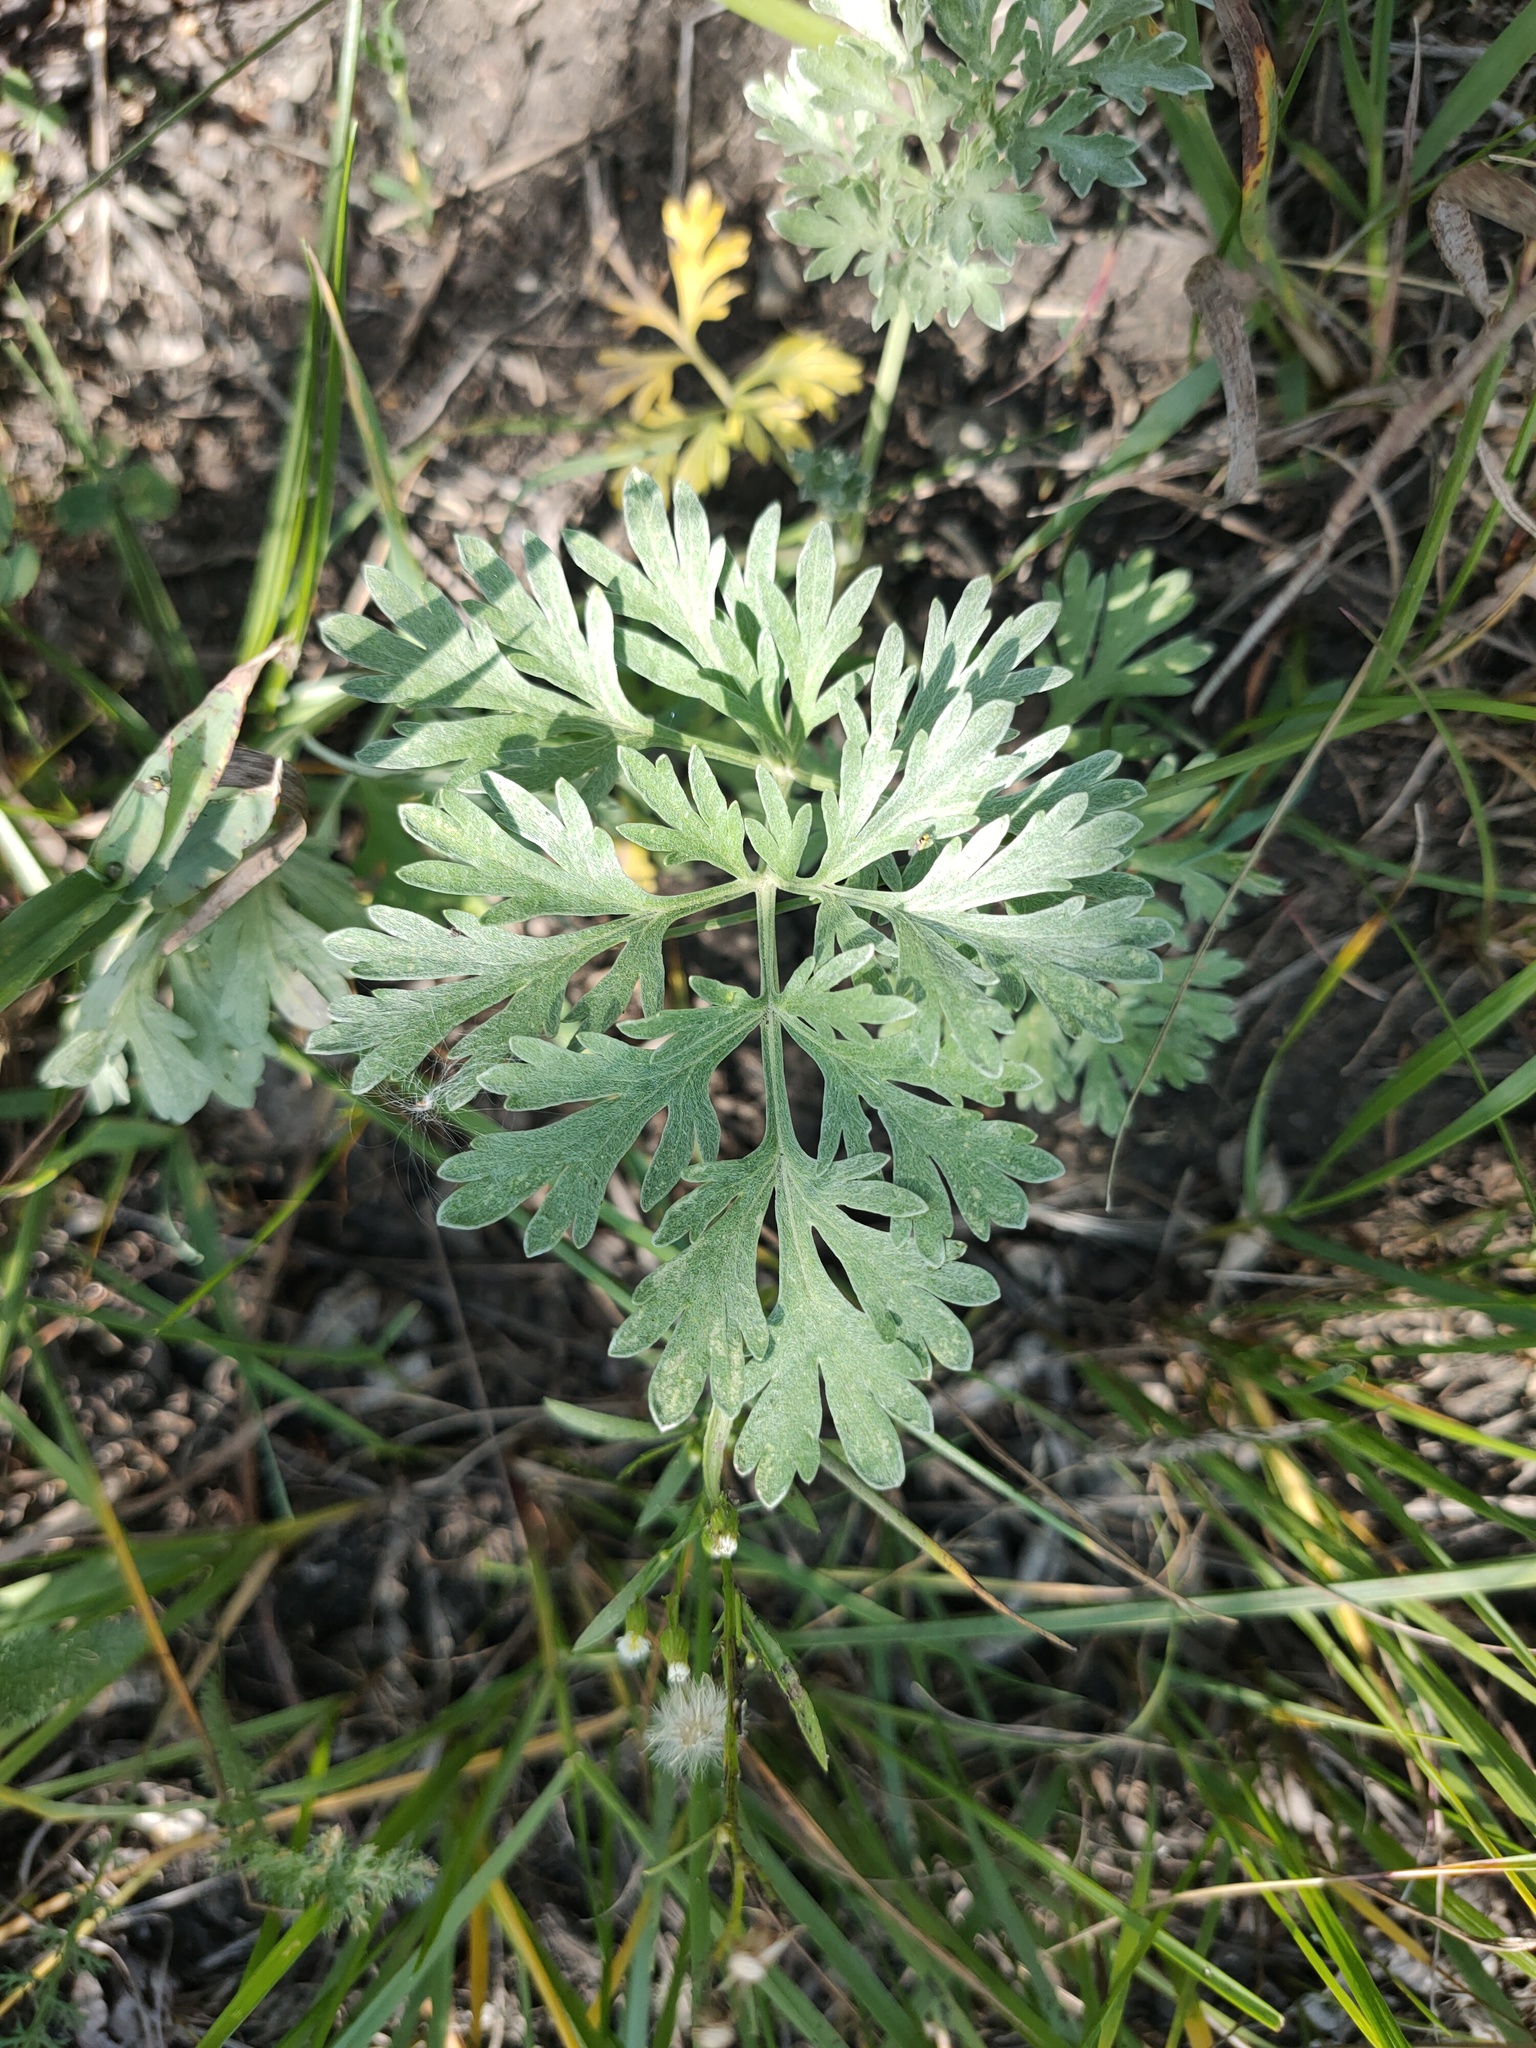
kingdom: Plantae
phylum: Tracheophyta
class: Magnoliopsida
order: Asterales
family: Asteraceae
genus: Artemisia
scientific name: Artemisia absinthium
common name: Wormwood
